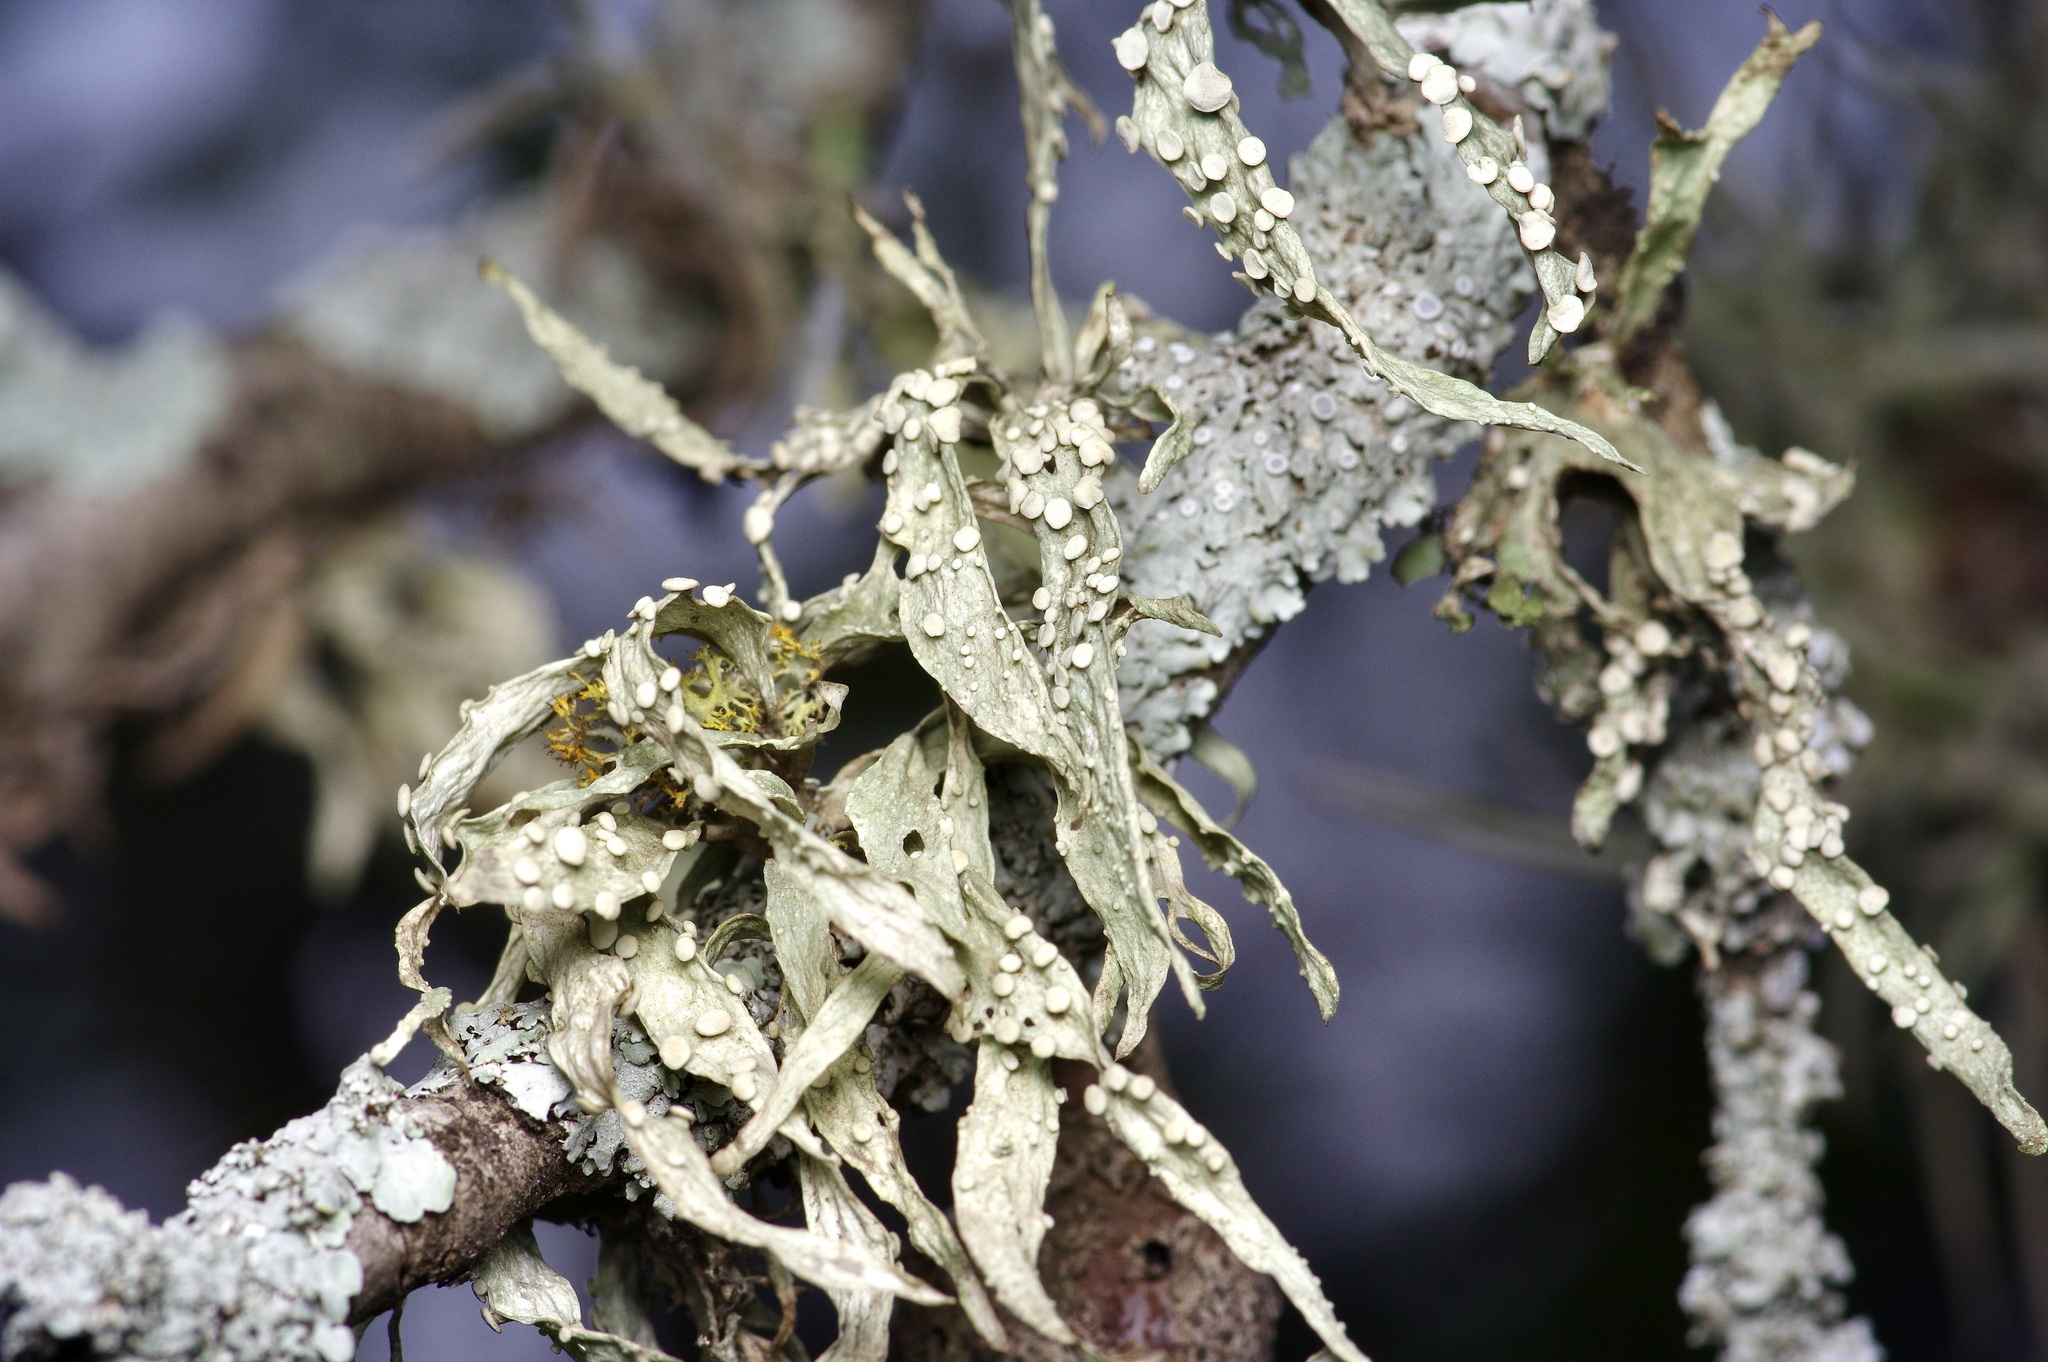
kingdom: Fungi
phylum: Ascomycota
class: Lecanoromycetes
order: Lecanorales
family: Ramalinaceae
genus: Ramalina
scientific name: Ramalina celastri
